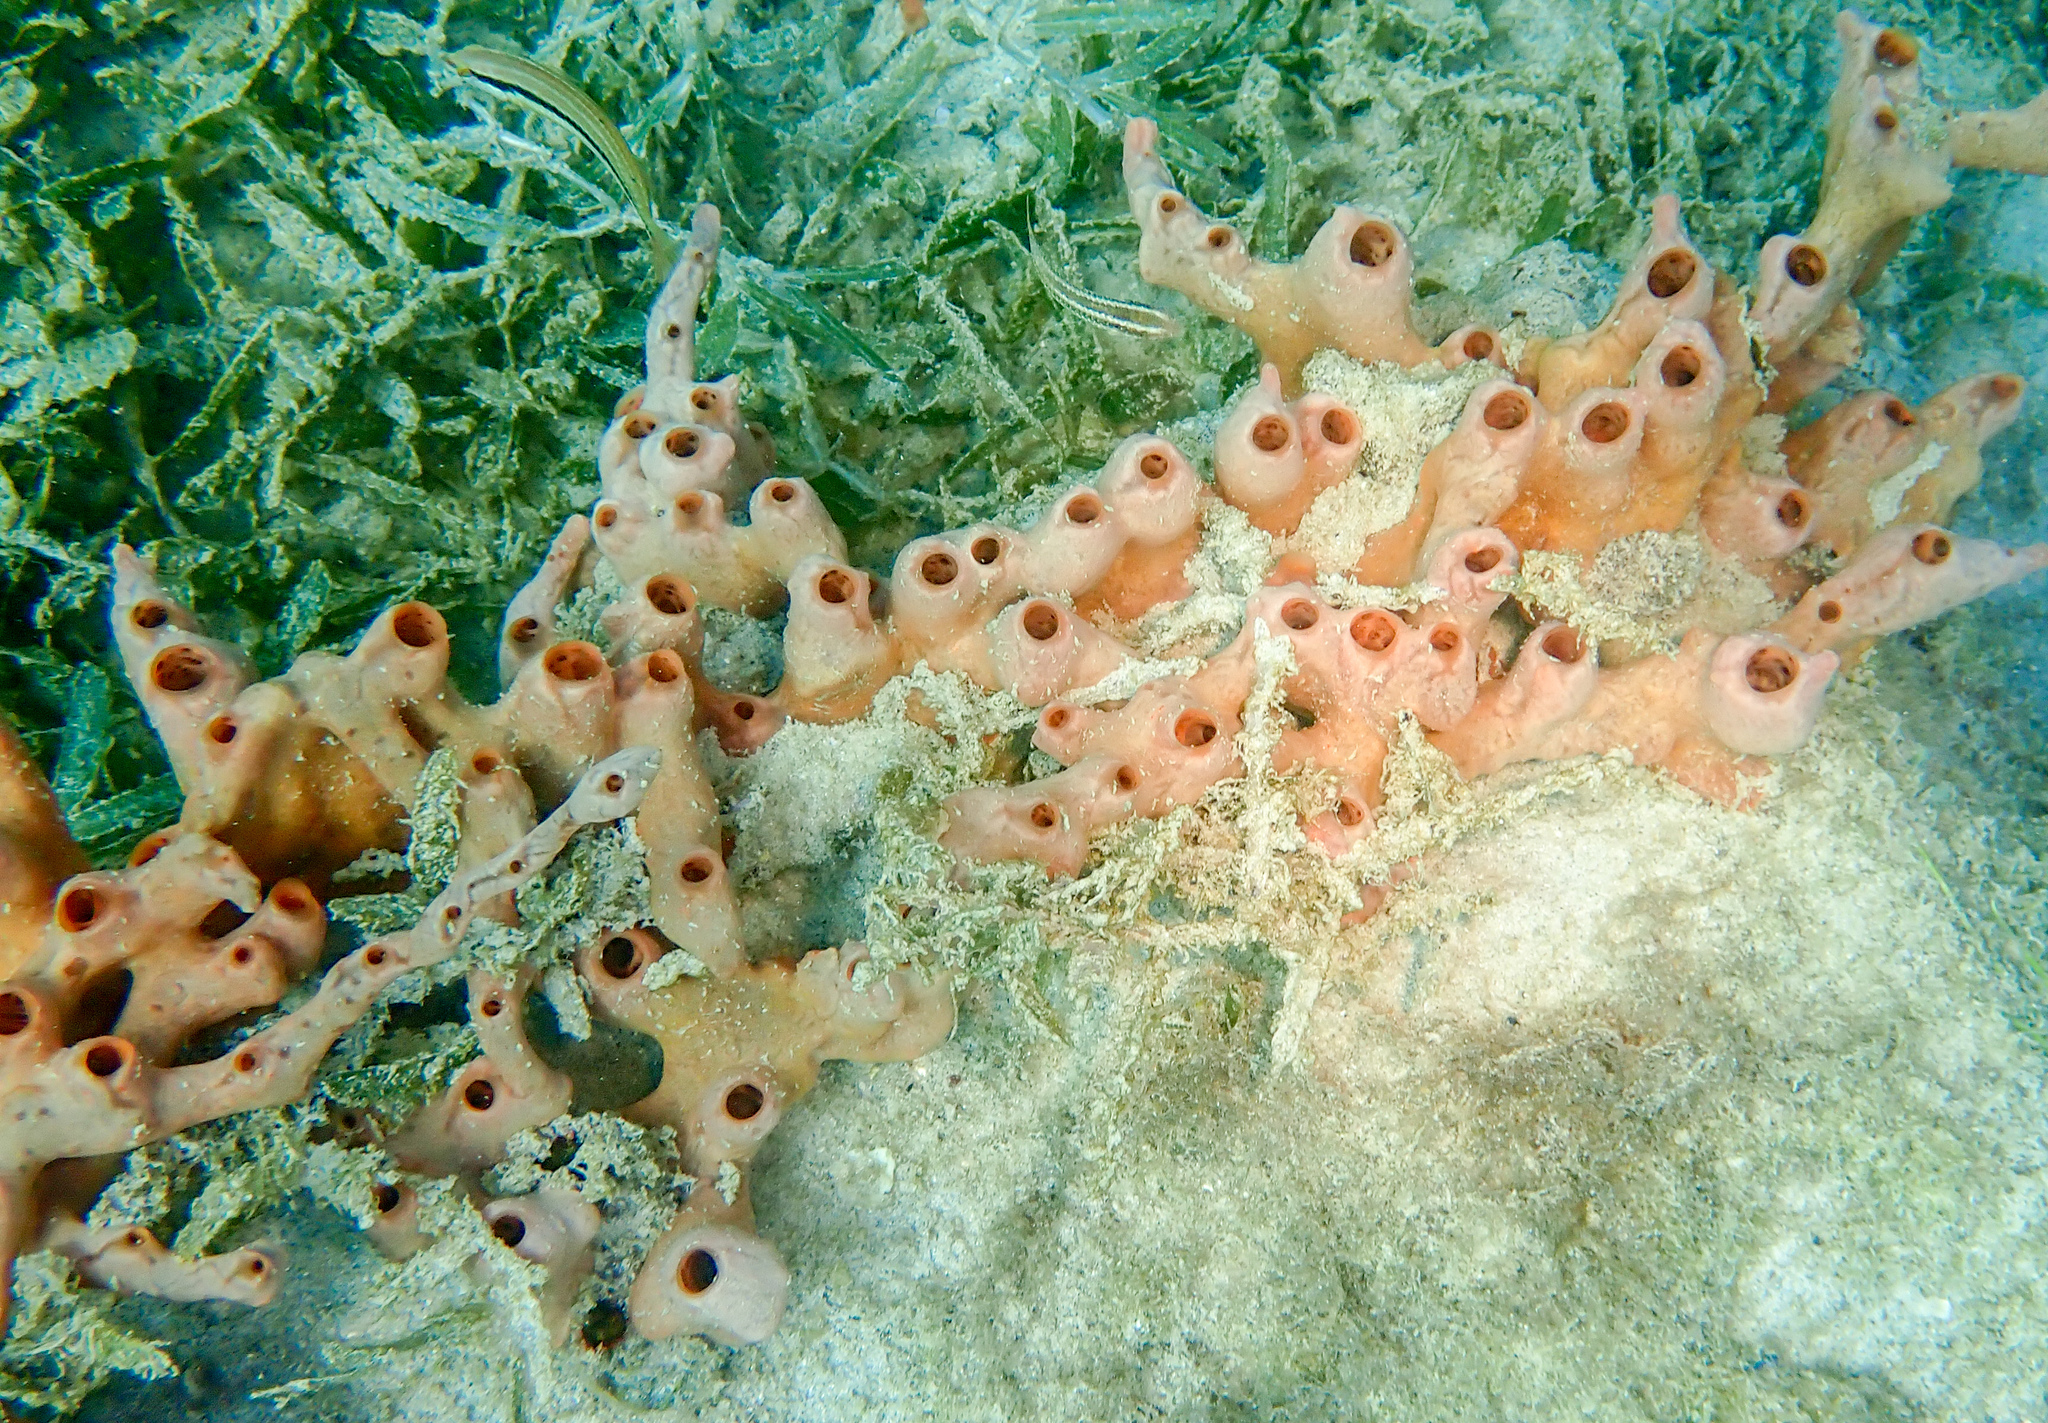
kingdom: Animalia
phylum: Porifera
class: Demospongiae
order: Poecilosclerida
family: Desmacididae
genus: Desmapsamma
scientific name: Desmapsamma anchorata
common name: Lumpy overgrowing sponge
